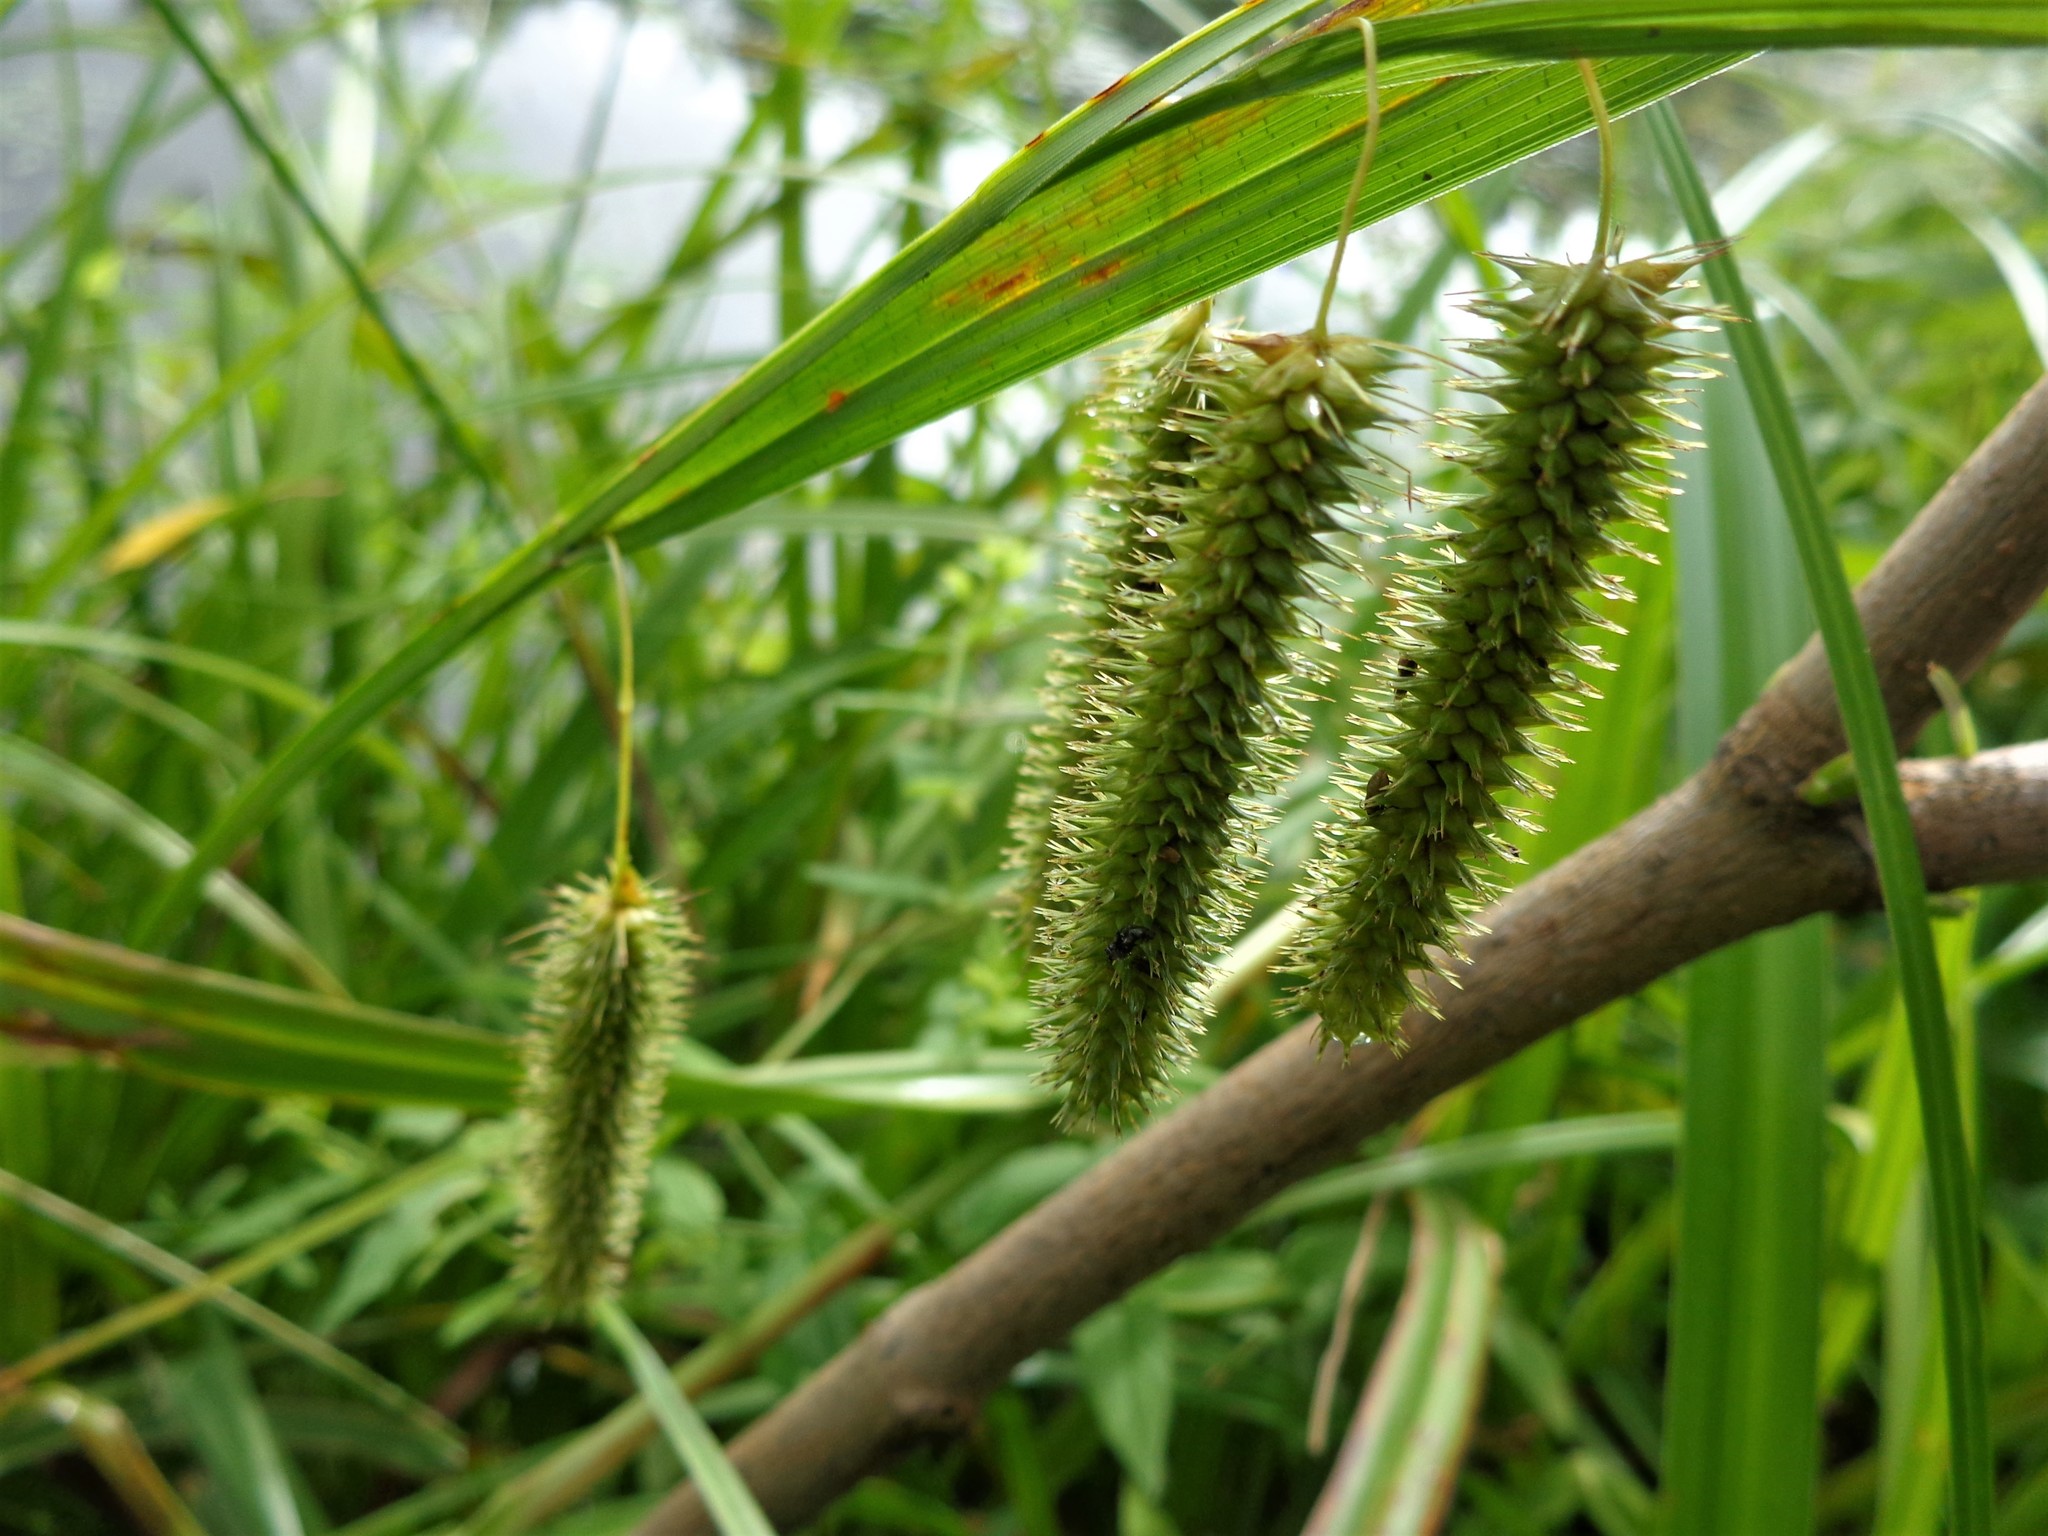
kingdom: Plantae
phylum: Tracheophyta
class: Liliopsida
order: Poales
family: Cyperaceae
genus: Carex
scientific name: Carex pseudocyperus
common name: Cyperus sedge
